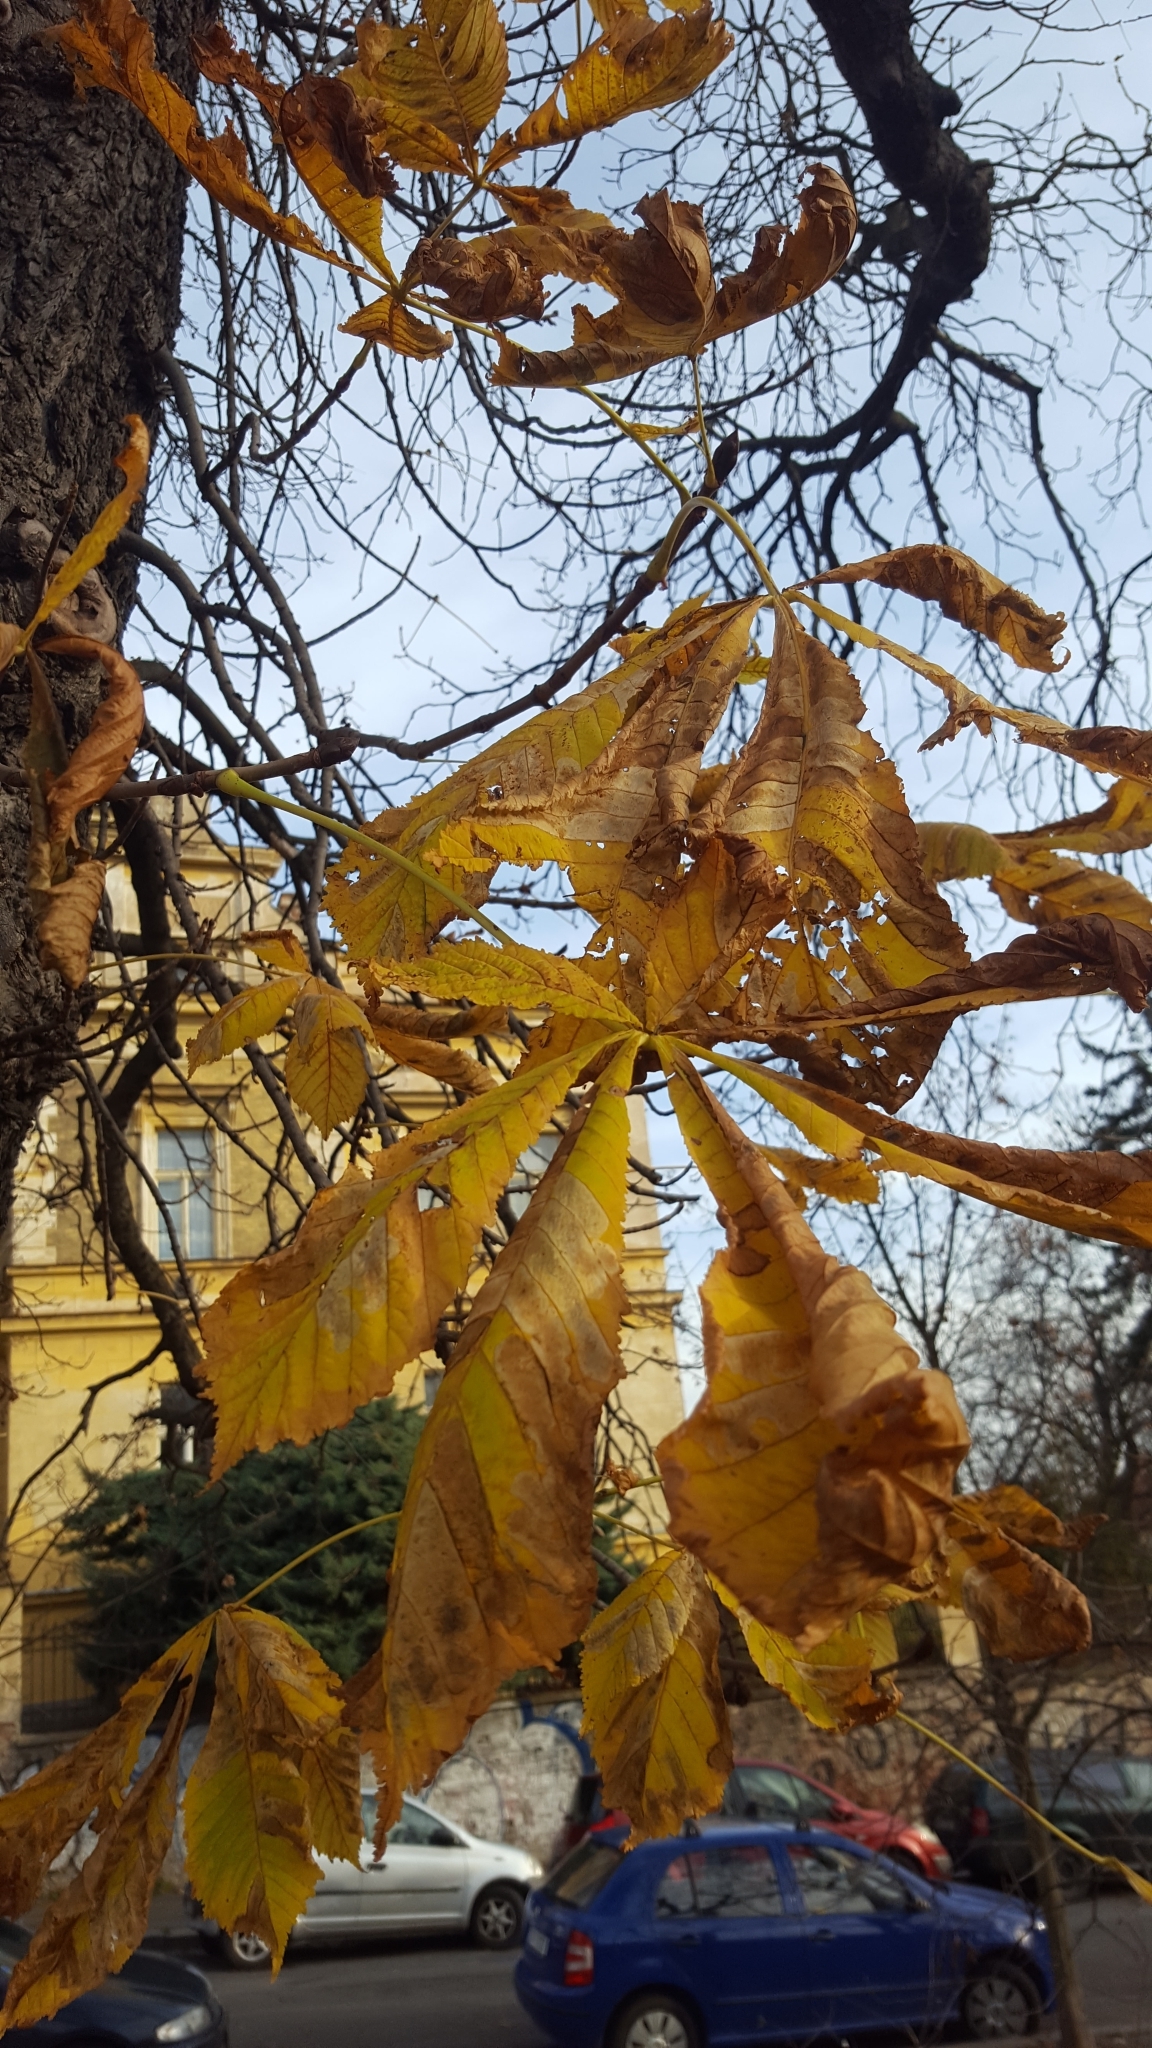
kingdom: Plantae
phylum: Tracheophyta
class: Magnoliopsida
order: Sapindales
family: Sapindaceae
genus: Aesculus
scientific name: Aesculus hippocastanum
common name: Horse-chestnut
